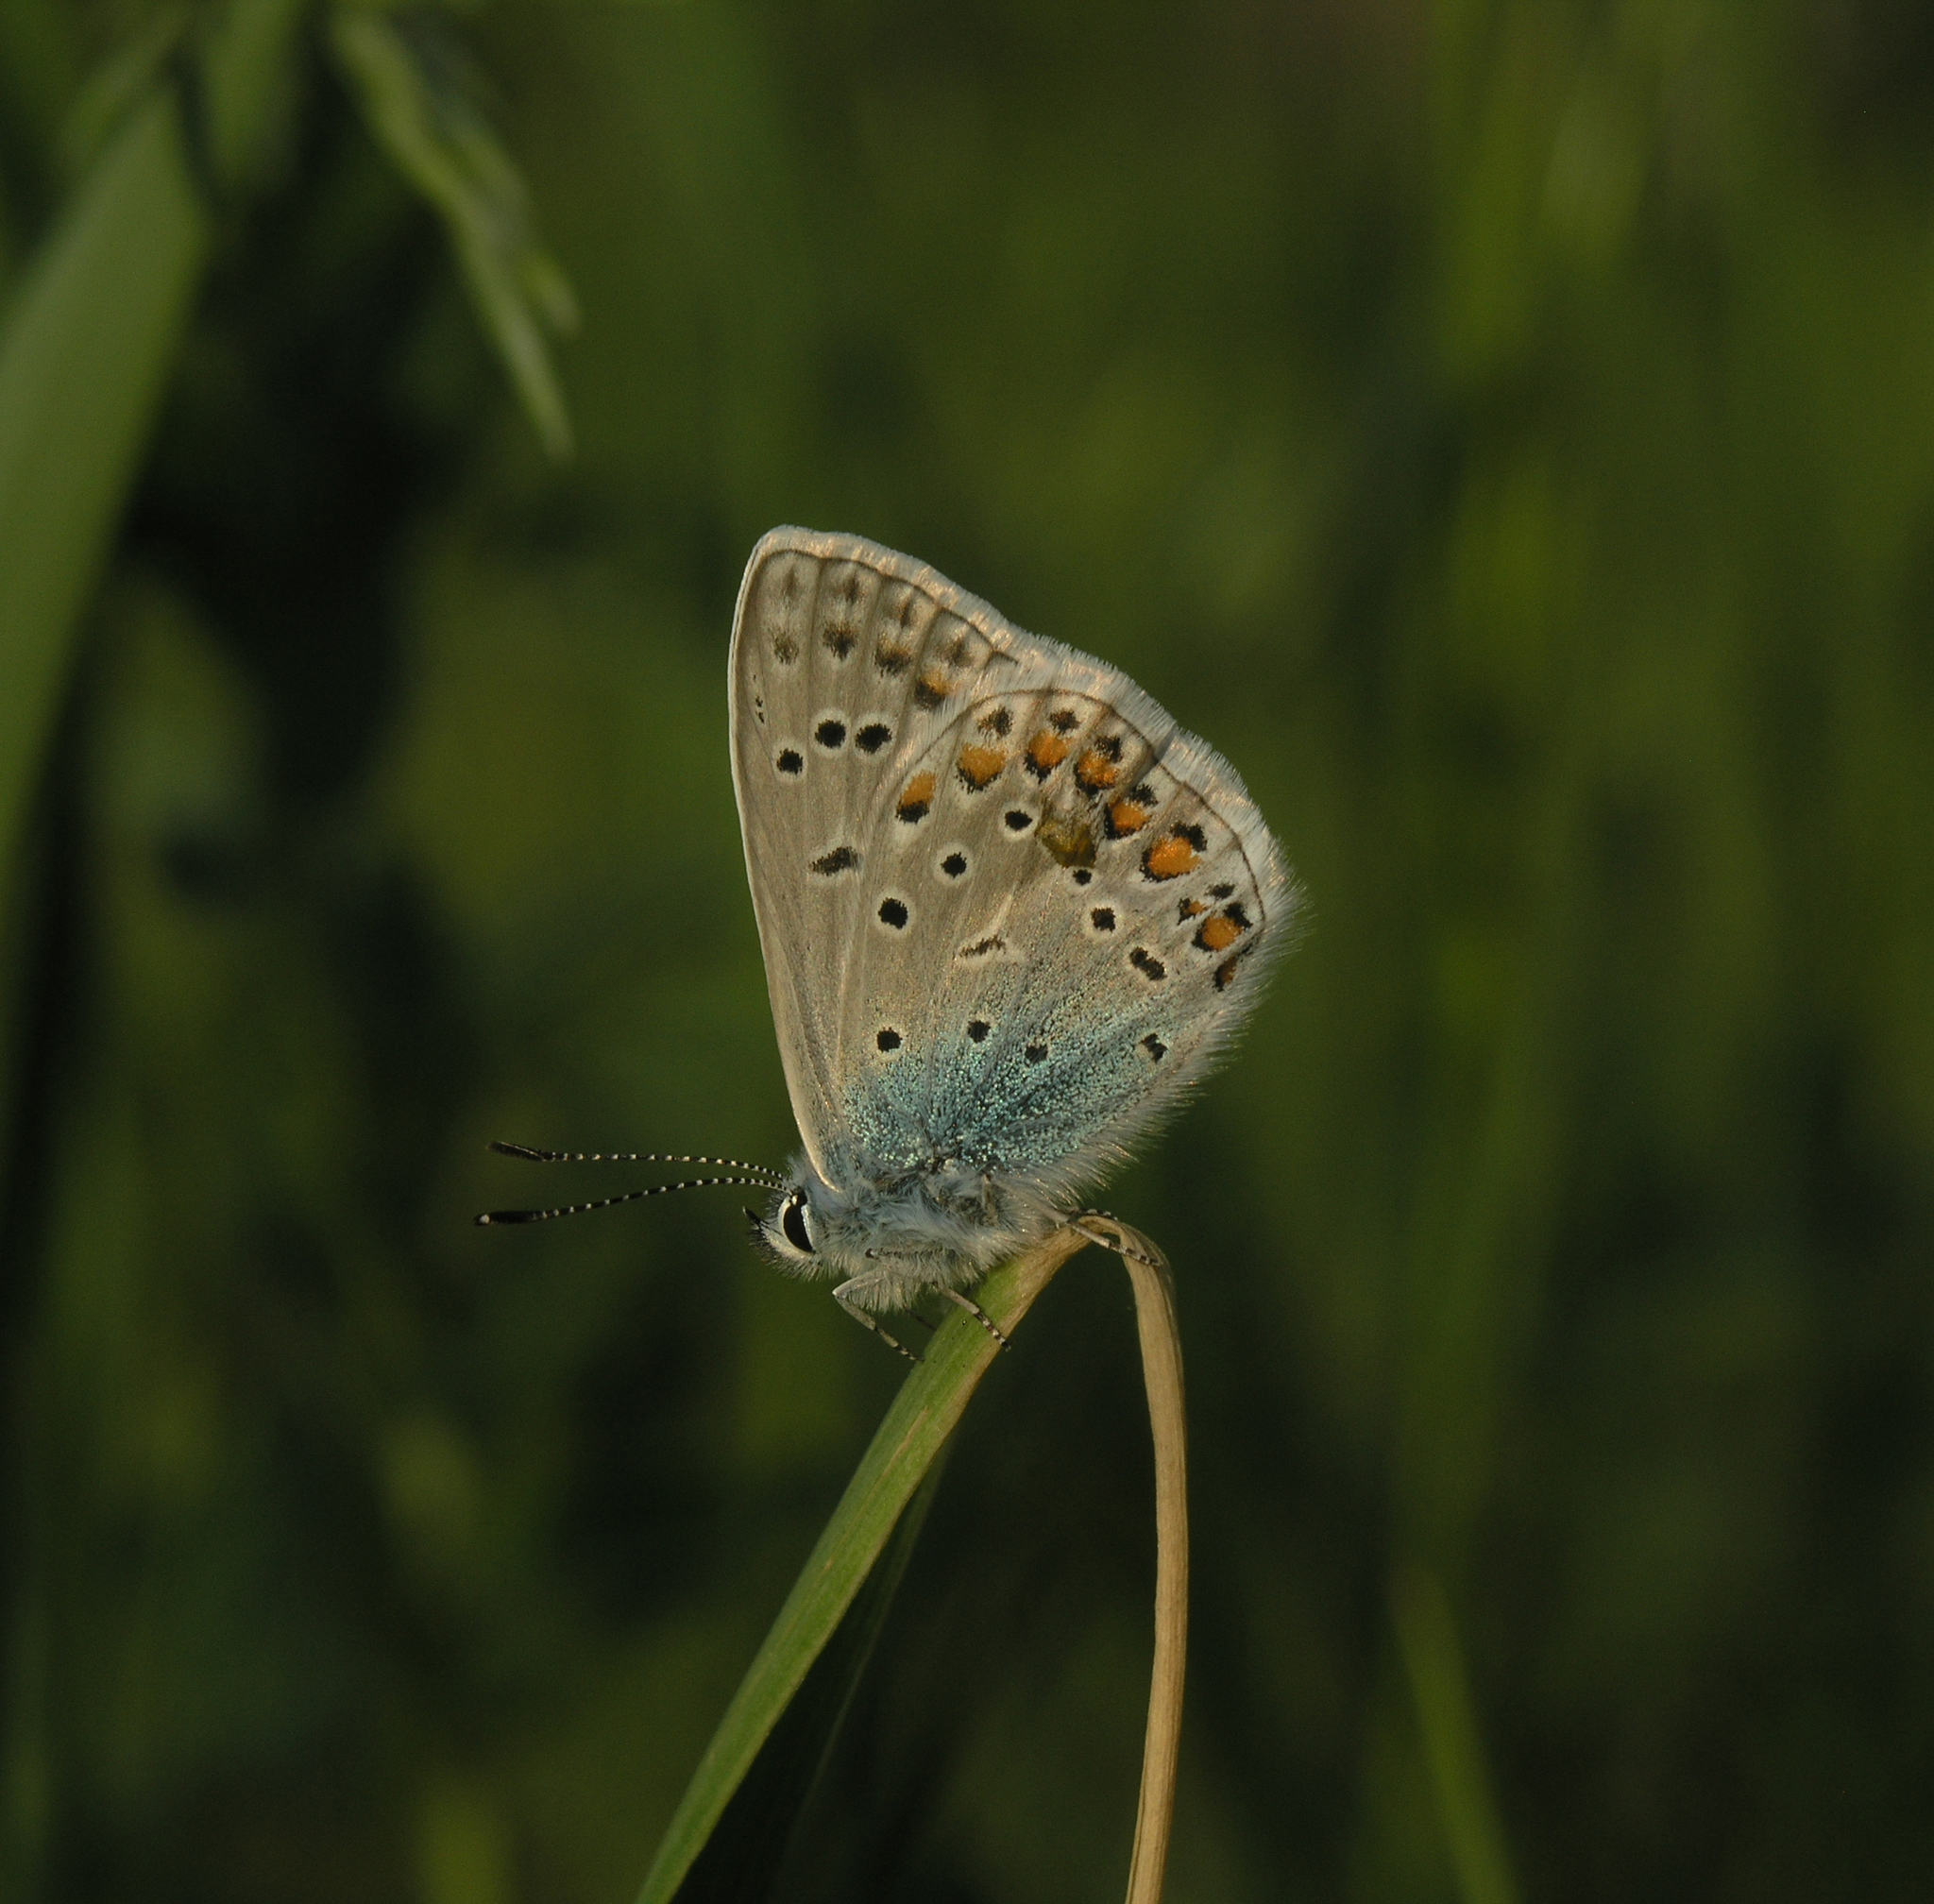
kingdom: Animalia
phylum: Arthropoda
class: Insecta
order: Lepidoptera
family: Lycaenidae
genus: Polyommatus
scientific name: Polyommatus icarus
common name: Common blue
